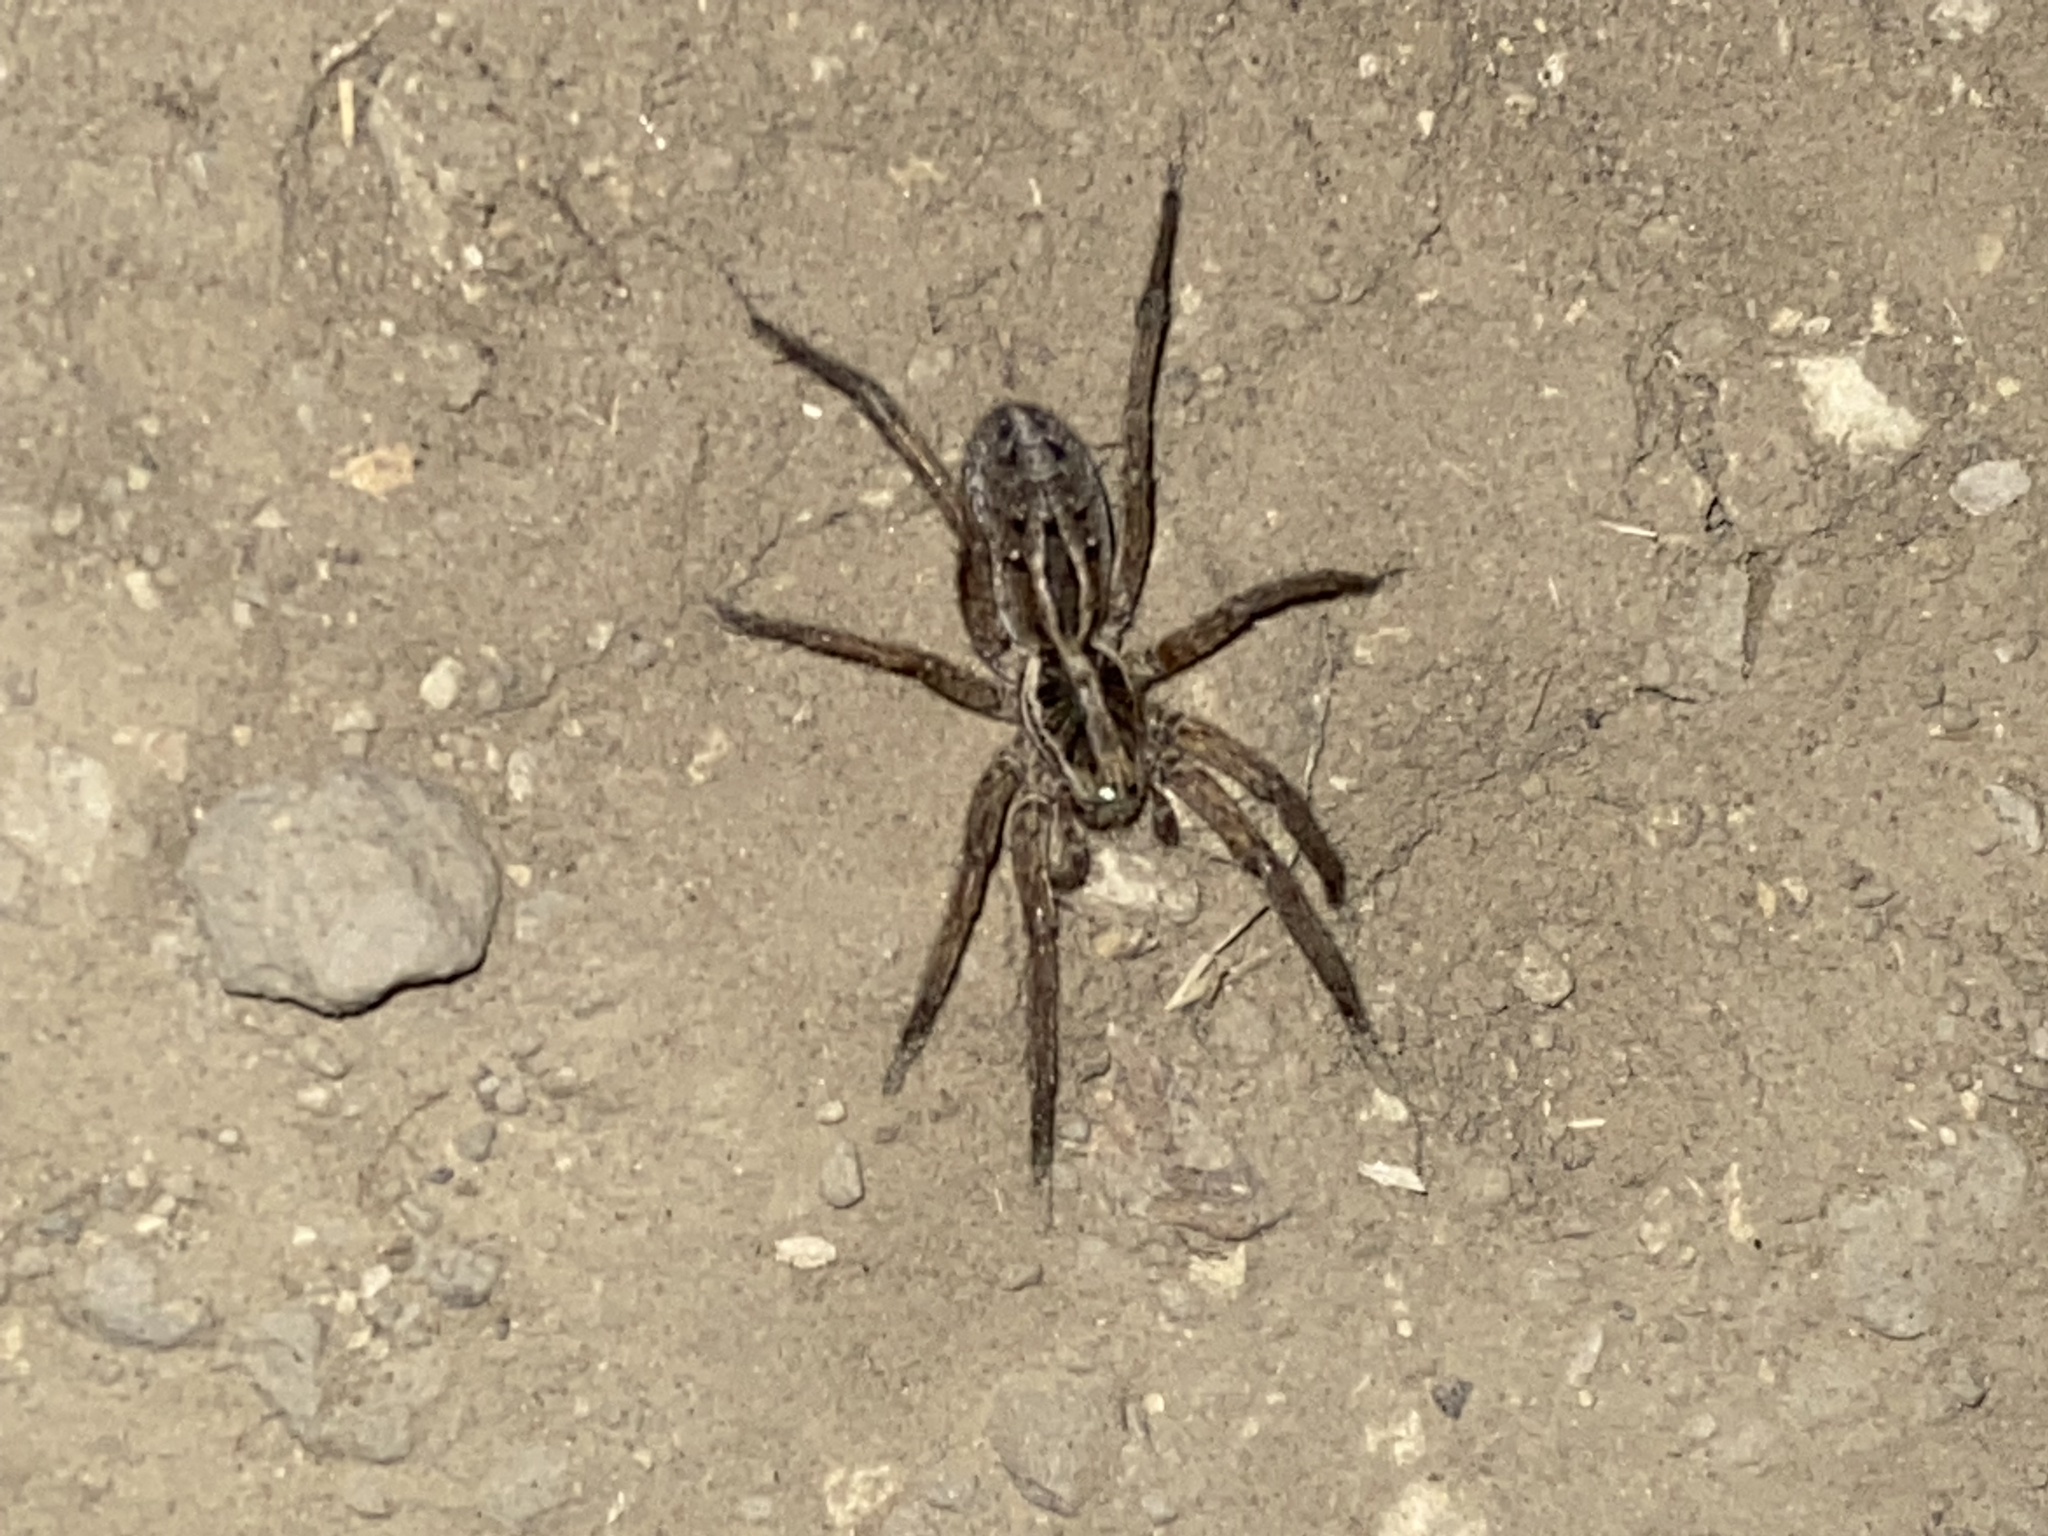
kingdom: Animalia
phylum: Arthropoda
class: Arachnida
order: Araneae
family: Lycosidae
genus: Schizocosa
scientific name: Schizocosa mccooki
